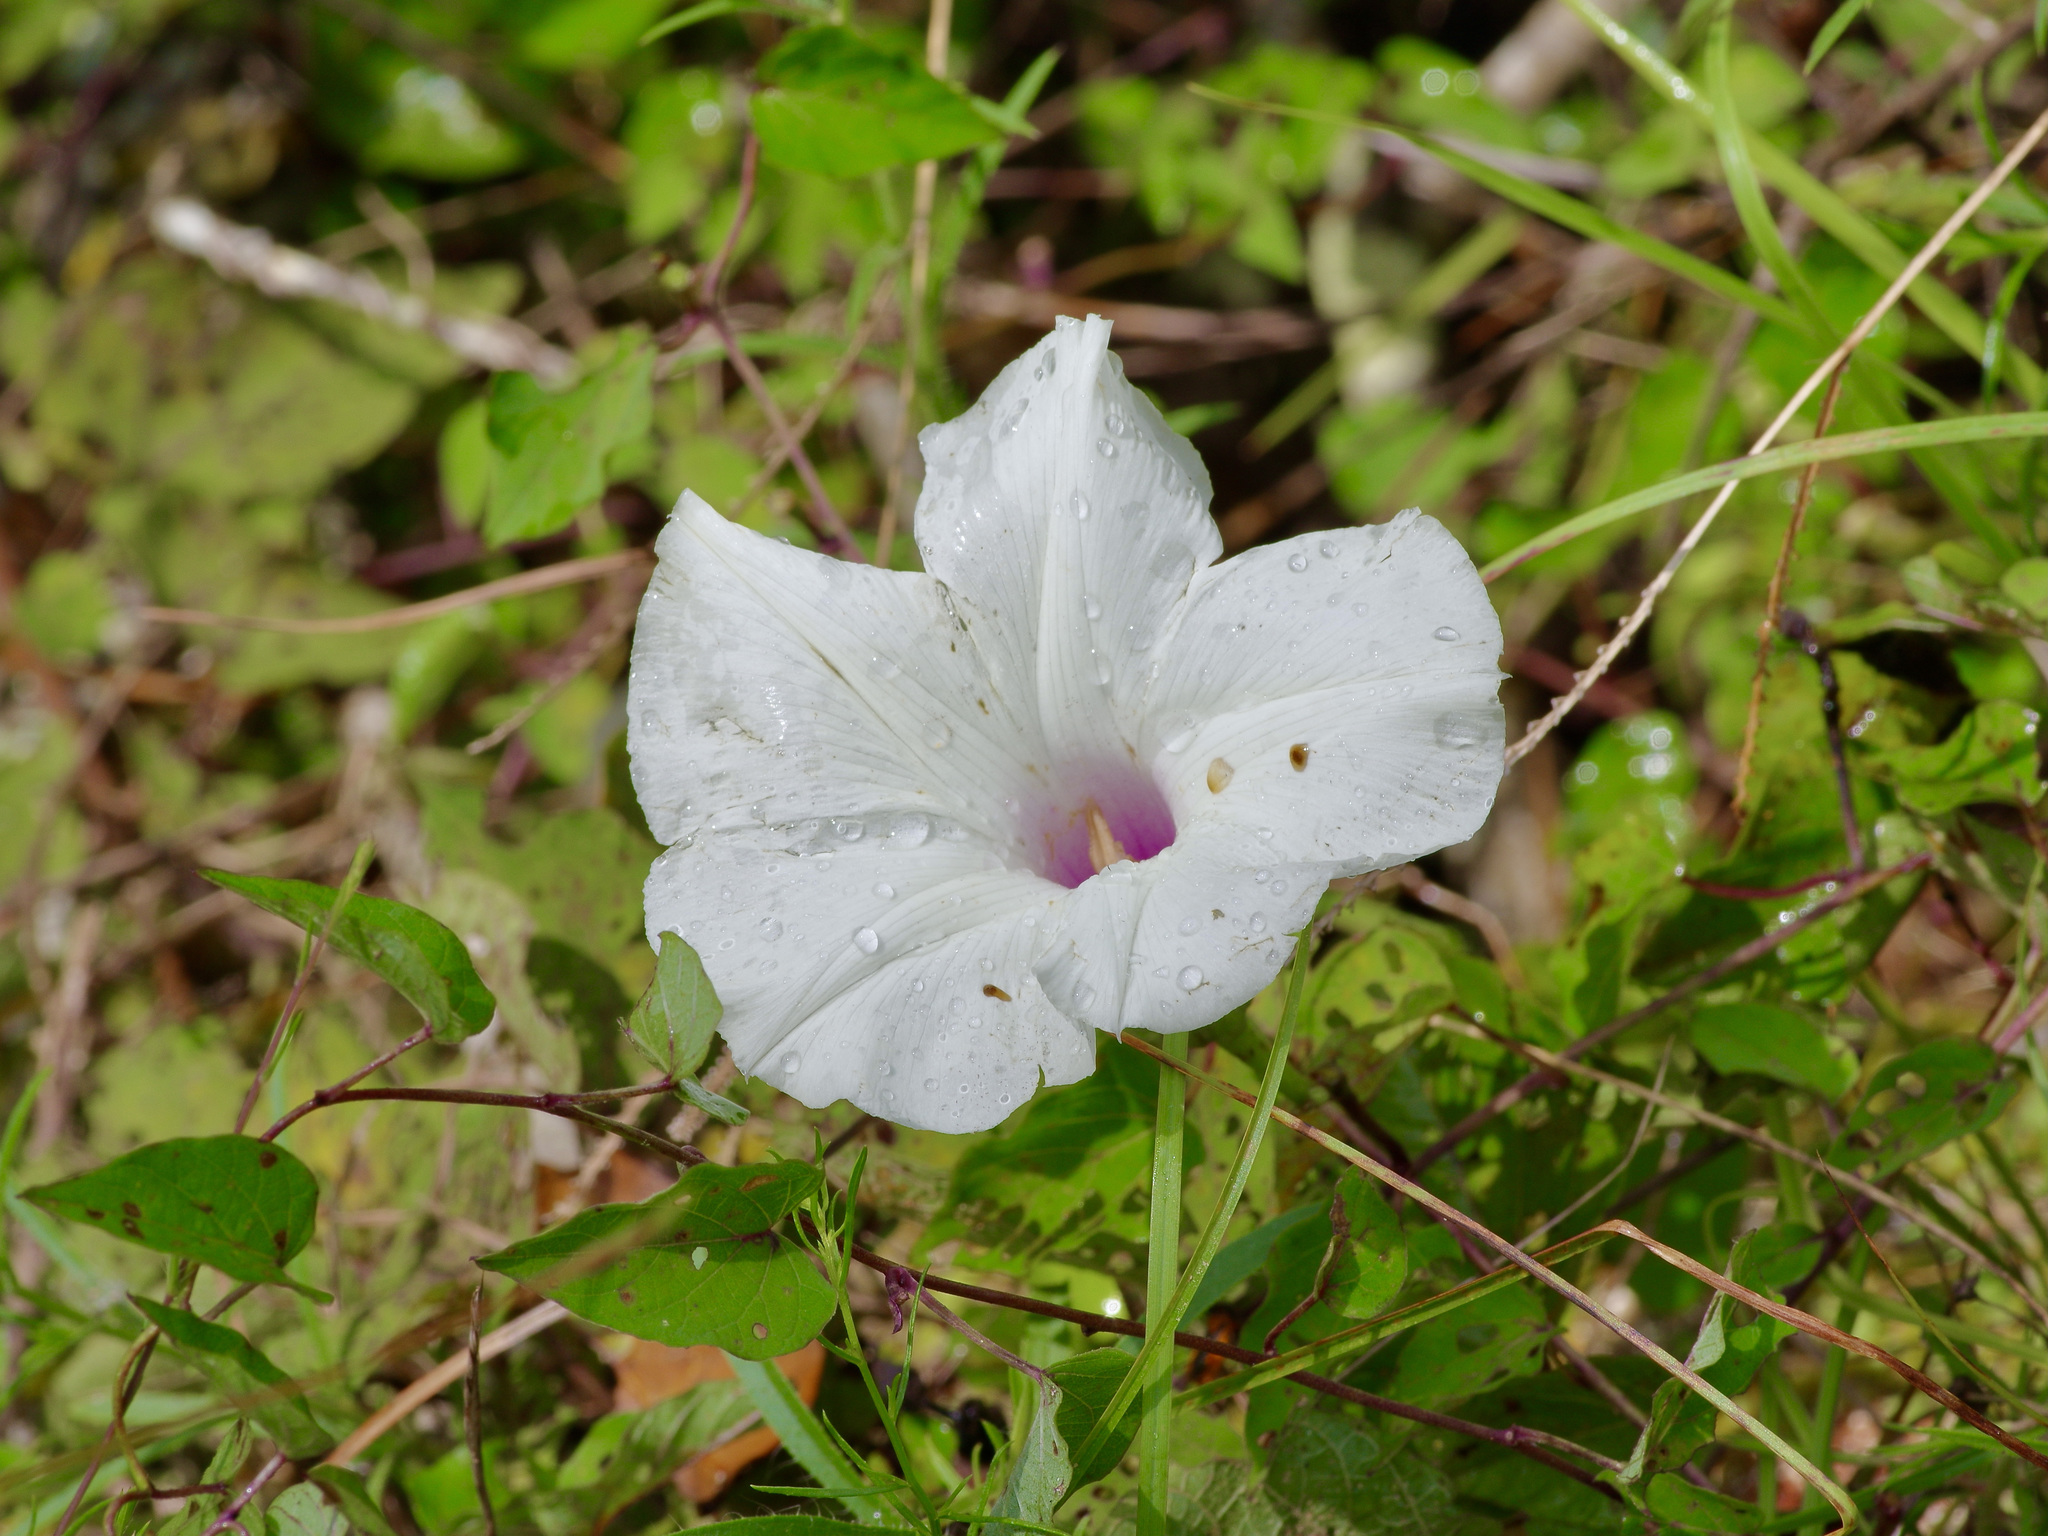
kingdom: Plantae
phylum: Tracheophyta
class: Magnoliopsida
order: Solanales
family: Convolvulaceae
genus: Ipomoea
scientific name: Ipomoea pandurata
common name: Man-of-the-earth
